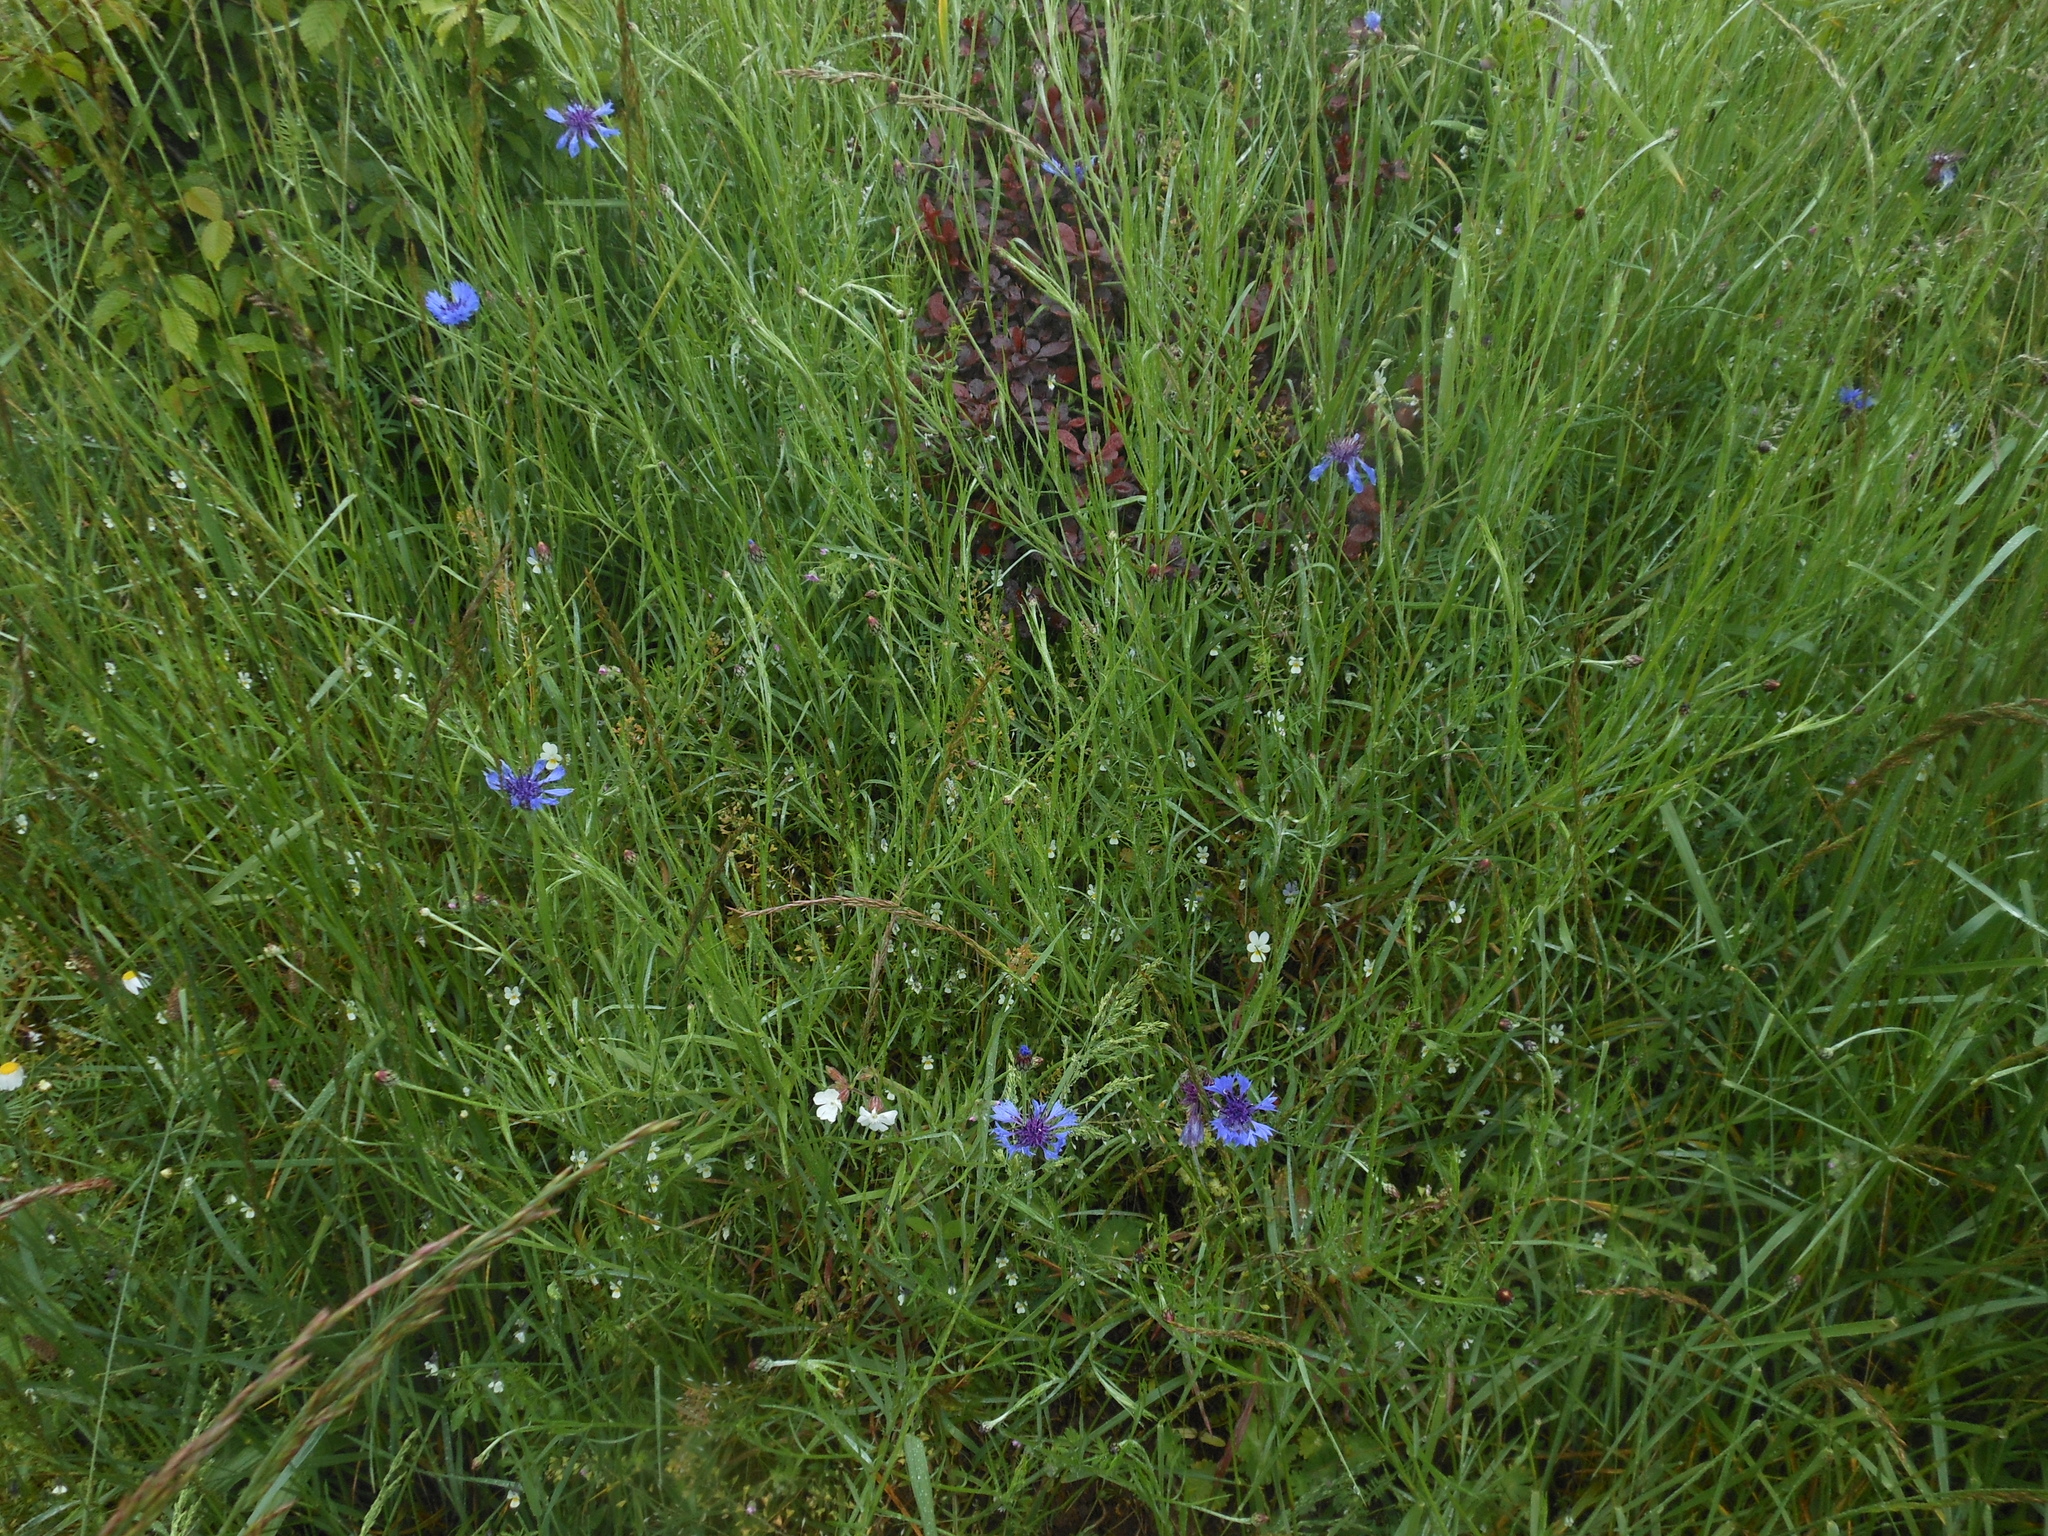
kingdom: Plantae
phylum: Tracheophyta
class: Magnoliopsida
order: Asterales
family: Asteraceae
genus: Centaurea
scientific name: Centaurea cyanus
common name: Cornflower
